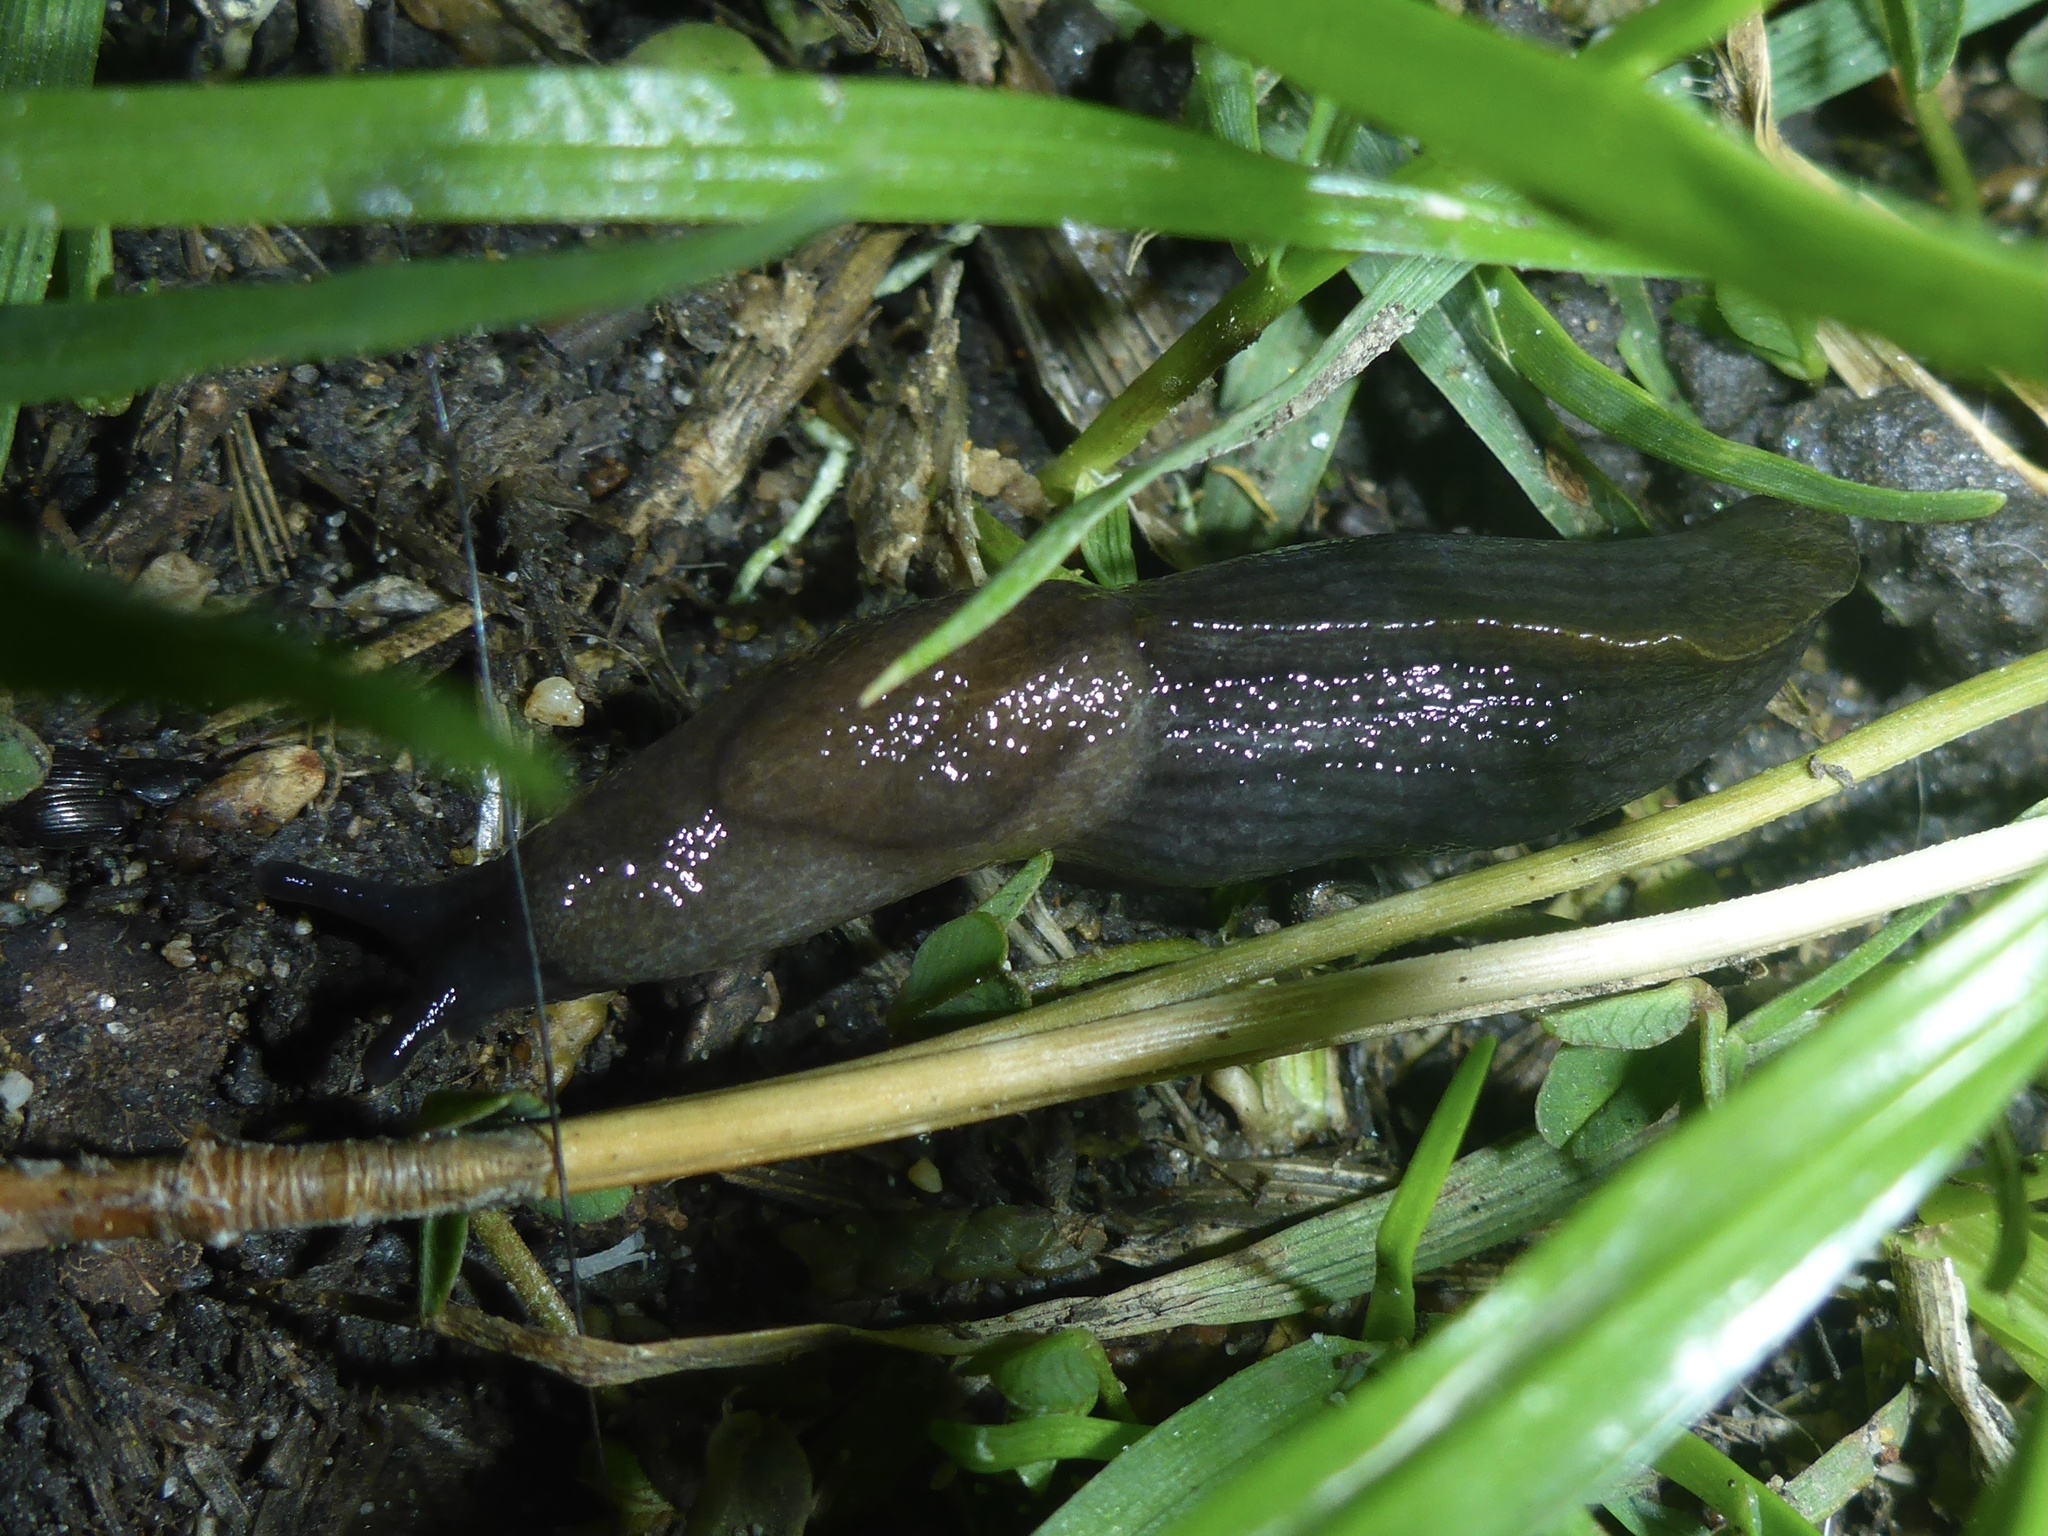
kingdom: Animalia
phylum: Mollusca
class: Gastropoda
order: Stylommatophora
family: Milacidae
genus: Milax
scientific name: Milax gagates
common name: Greenhouse slug
